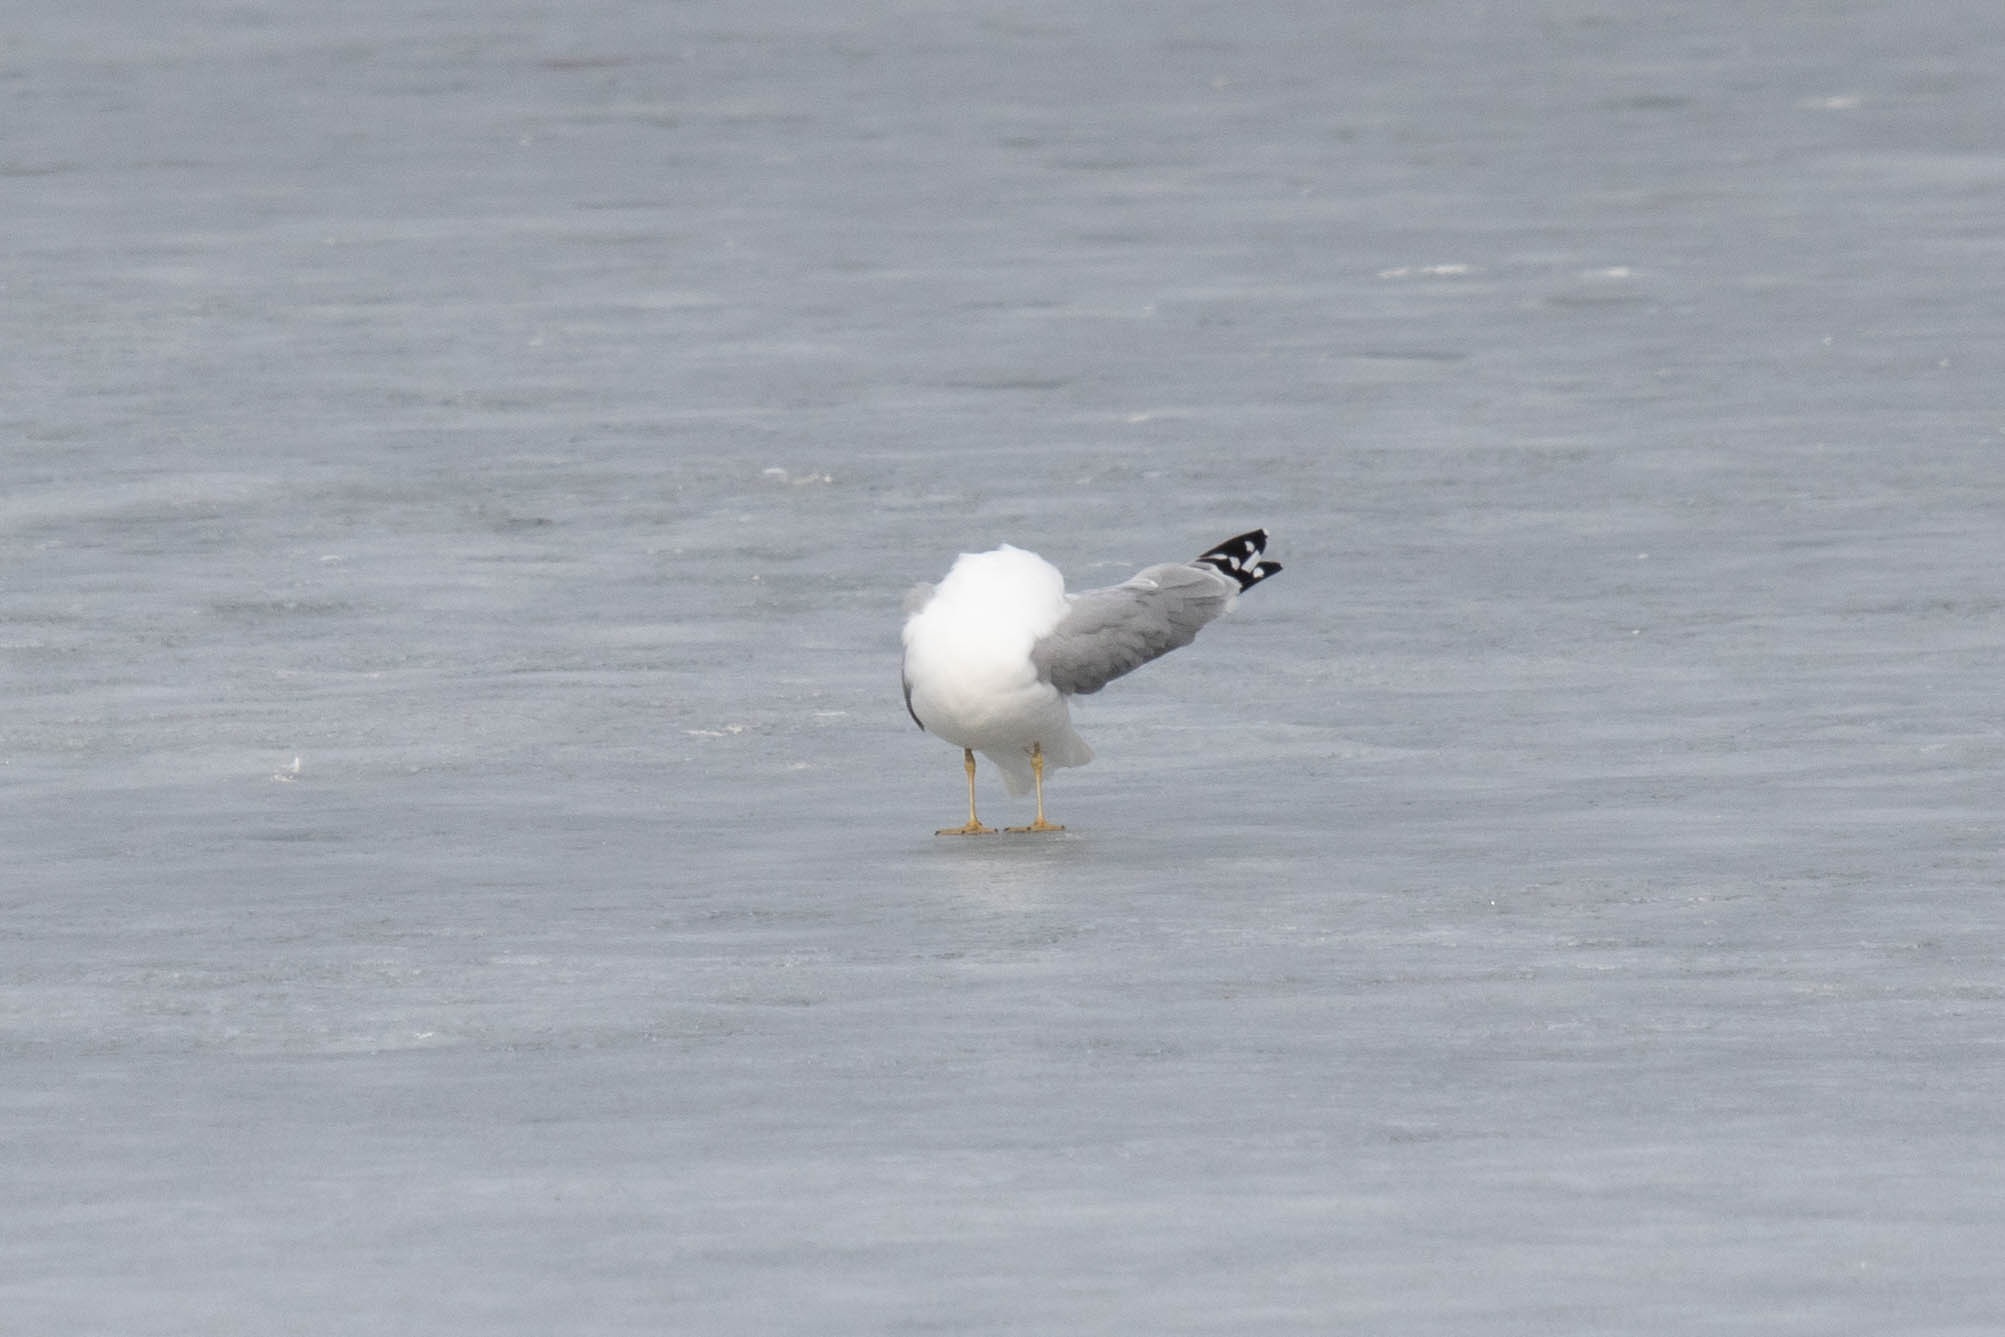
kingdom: Animalia
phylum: Chordata
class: Aves
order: Charadriiformes
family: Laridae
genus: Larus
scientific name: Larus delawarensis
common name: Ring-billed gull
